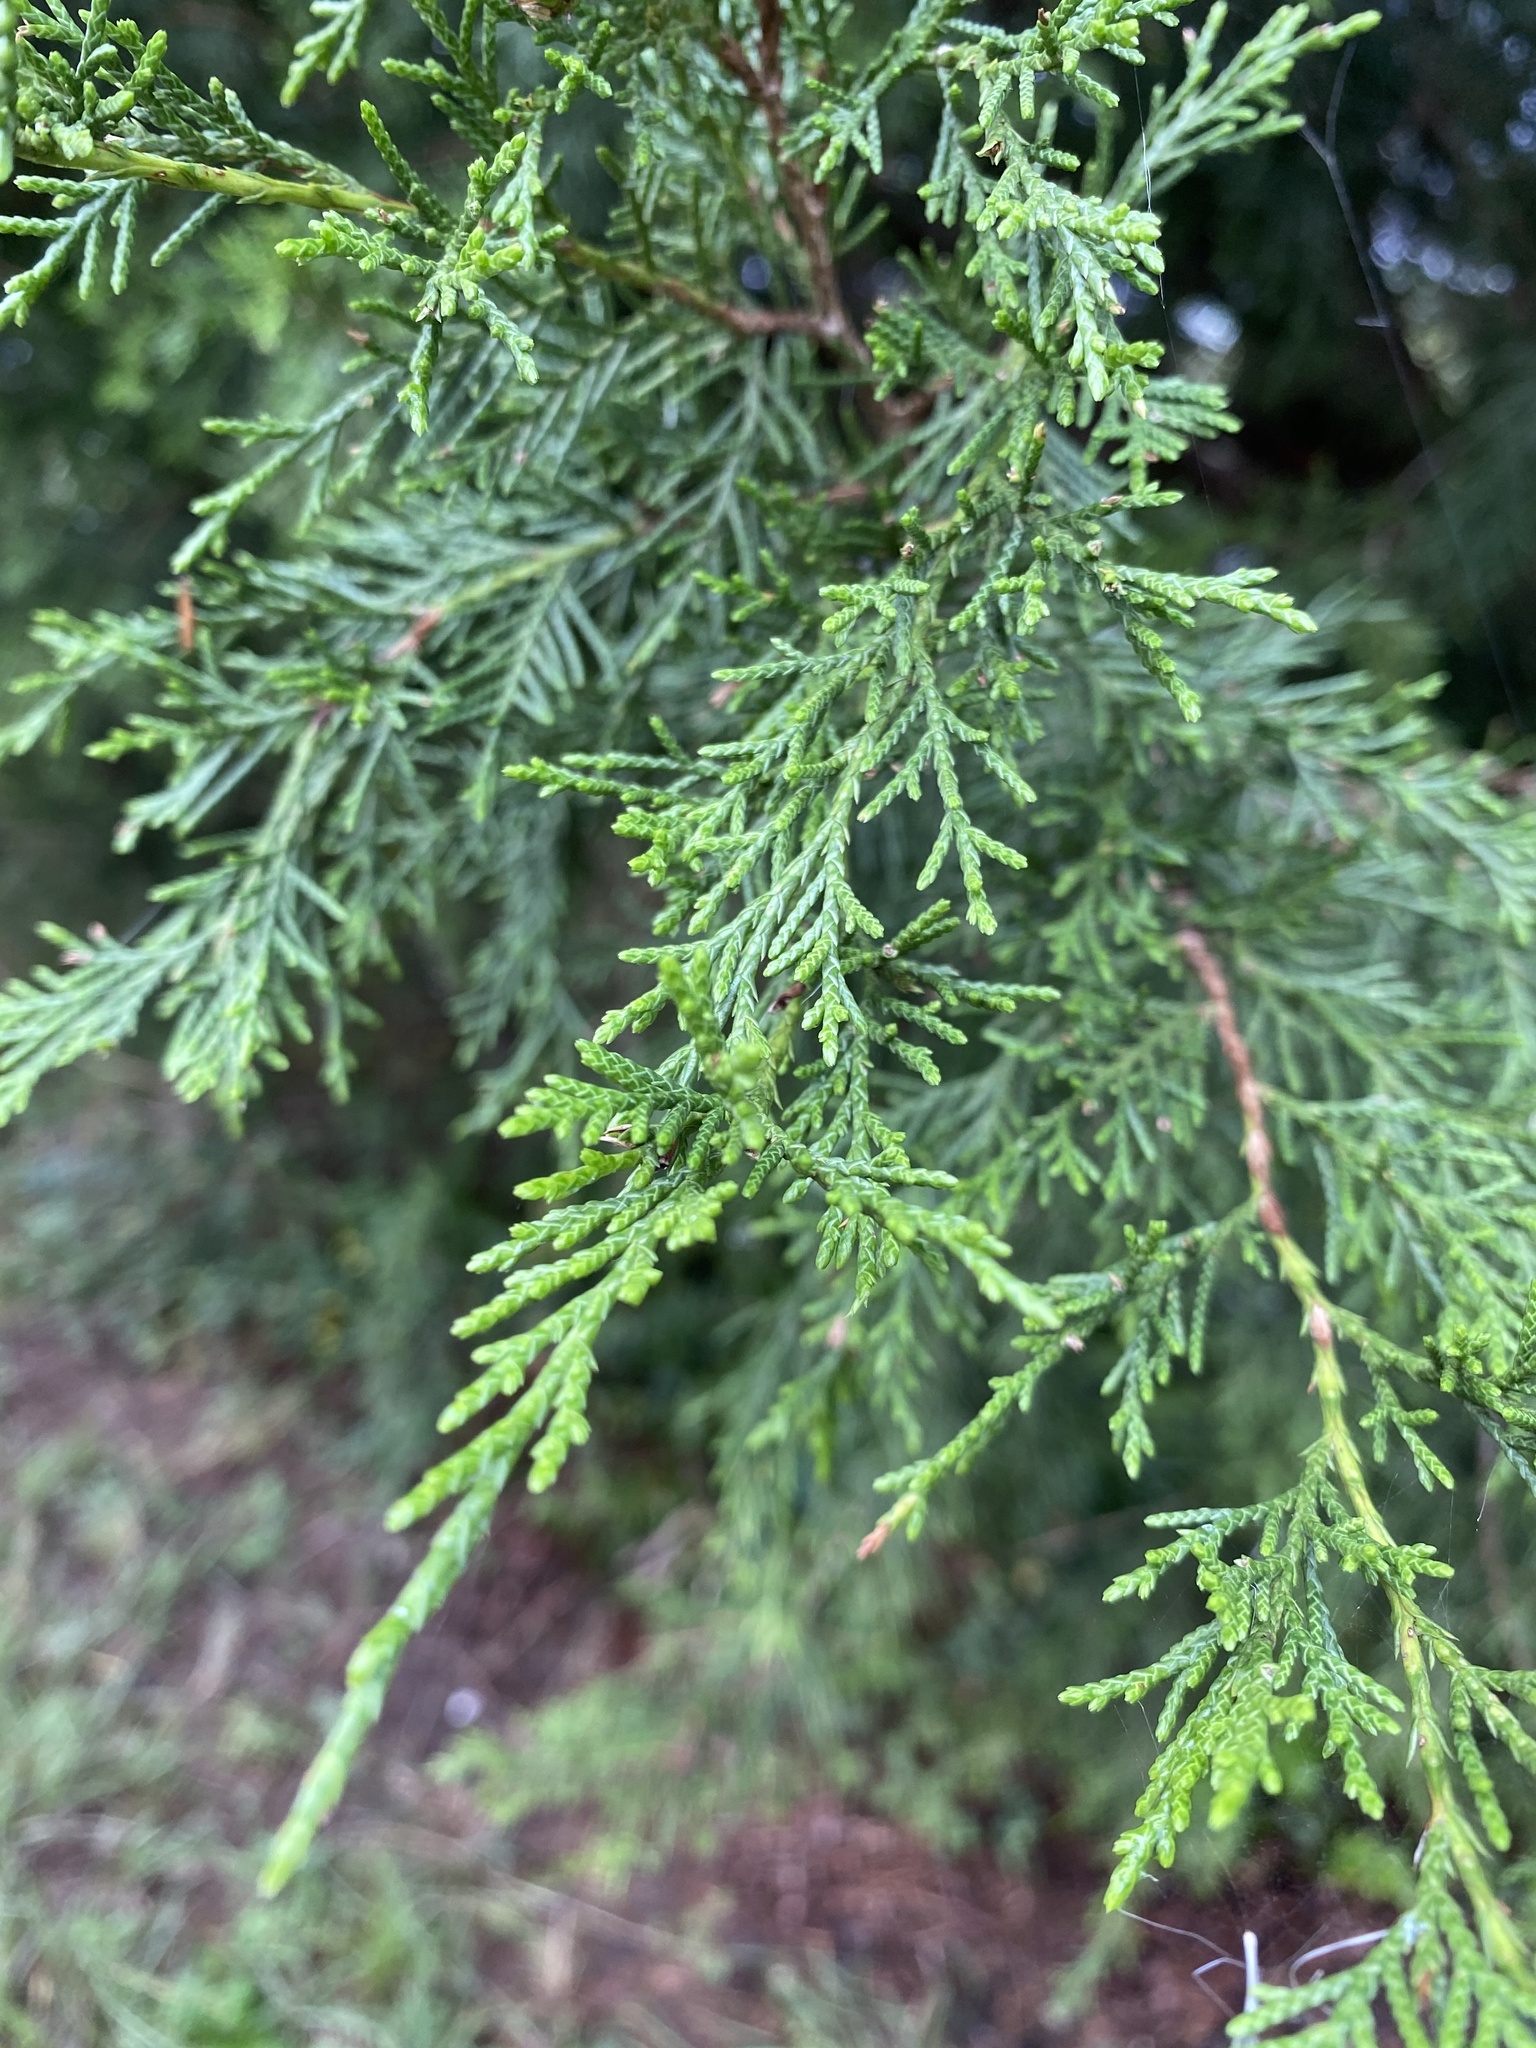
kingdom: Plantae
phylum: Tracheophyta
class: Pinopsida
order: Pinales
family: Cupressaceae
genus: Juniperus
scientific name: Juniperus virginiana
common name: Red juniper
